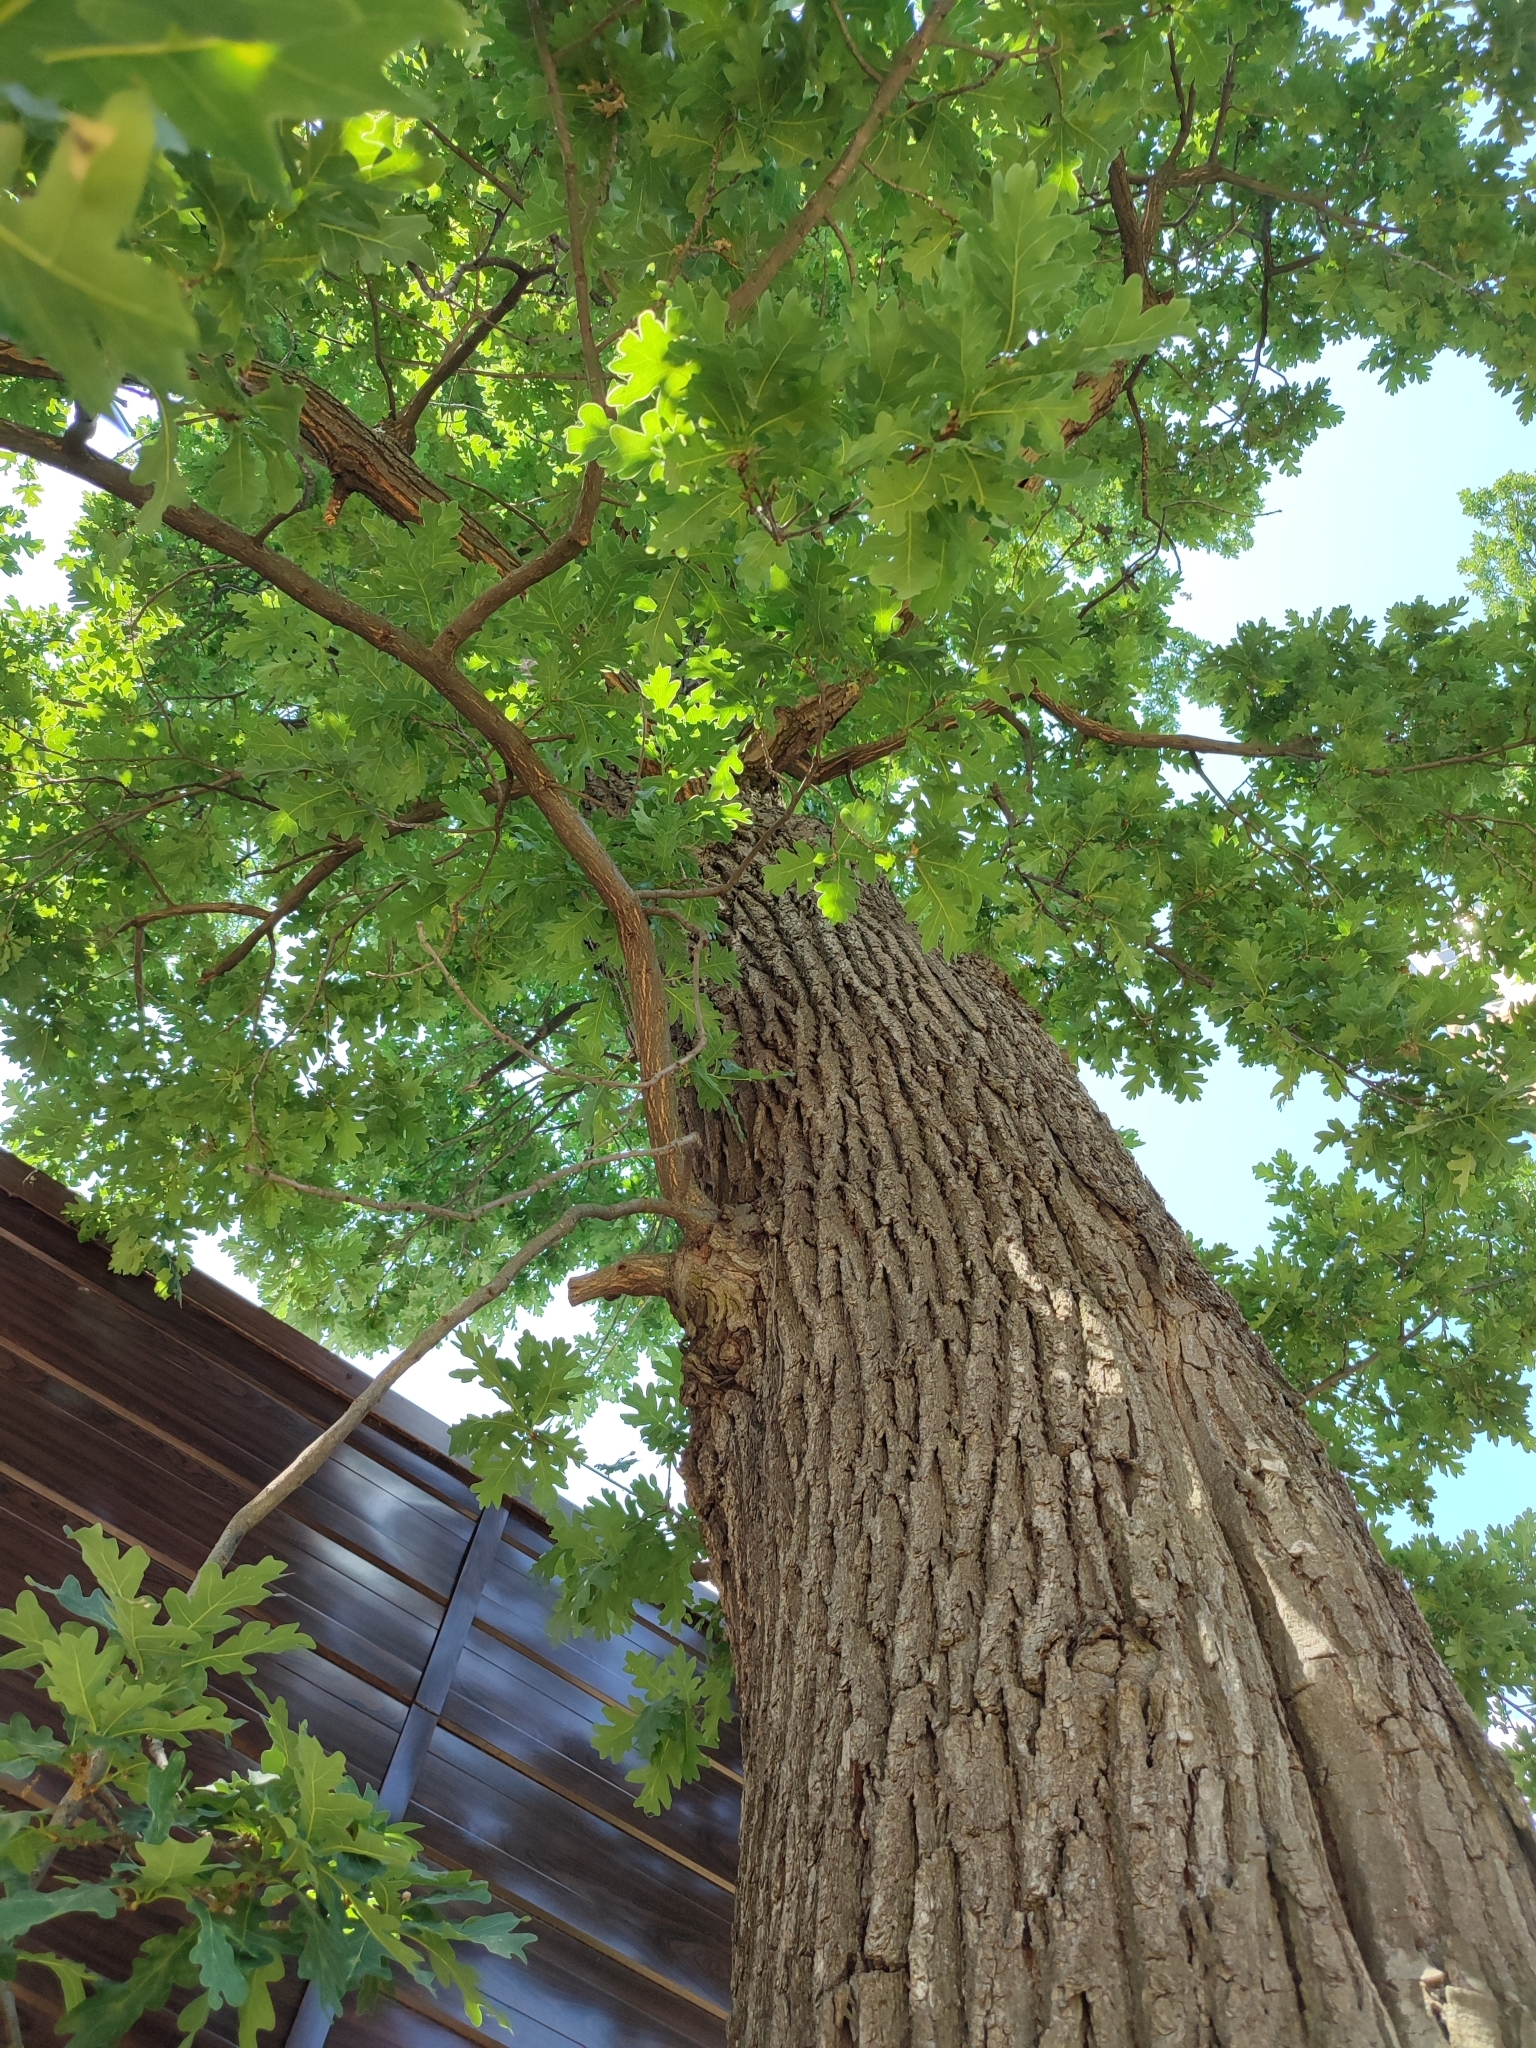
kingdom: Plantae
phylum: Tracheophyta
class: Magnoliopsida
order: Fagales
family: Fagaceae
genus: Quercus
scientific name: Quercus robur
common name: Pedunculate oak
